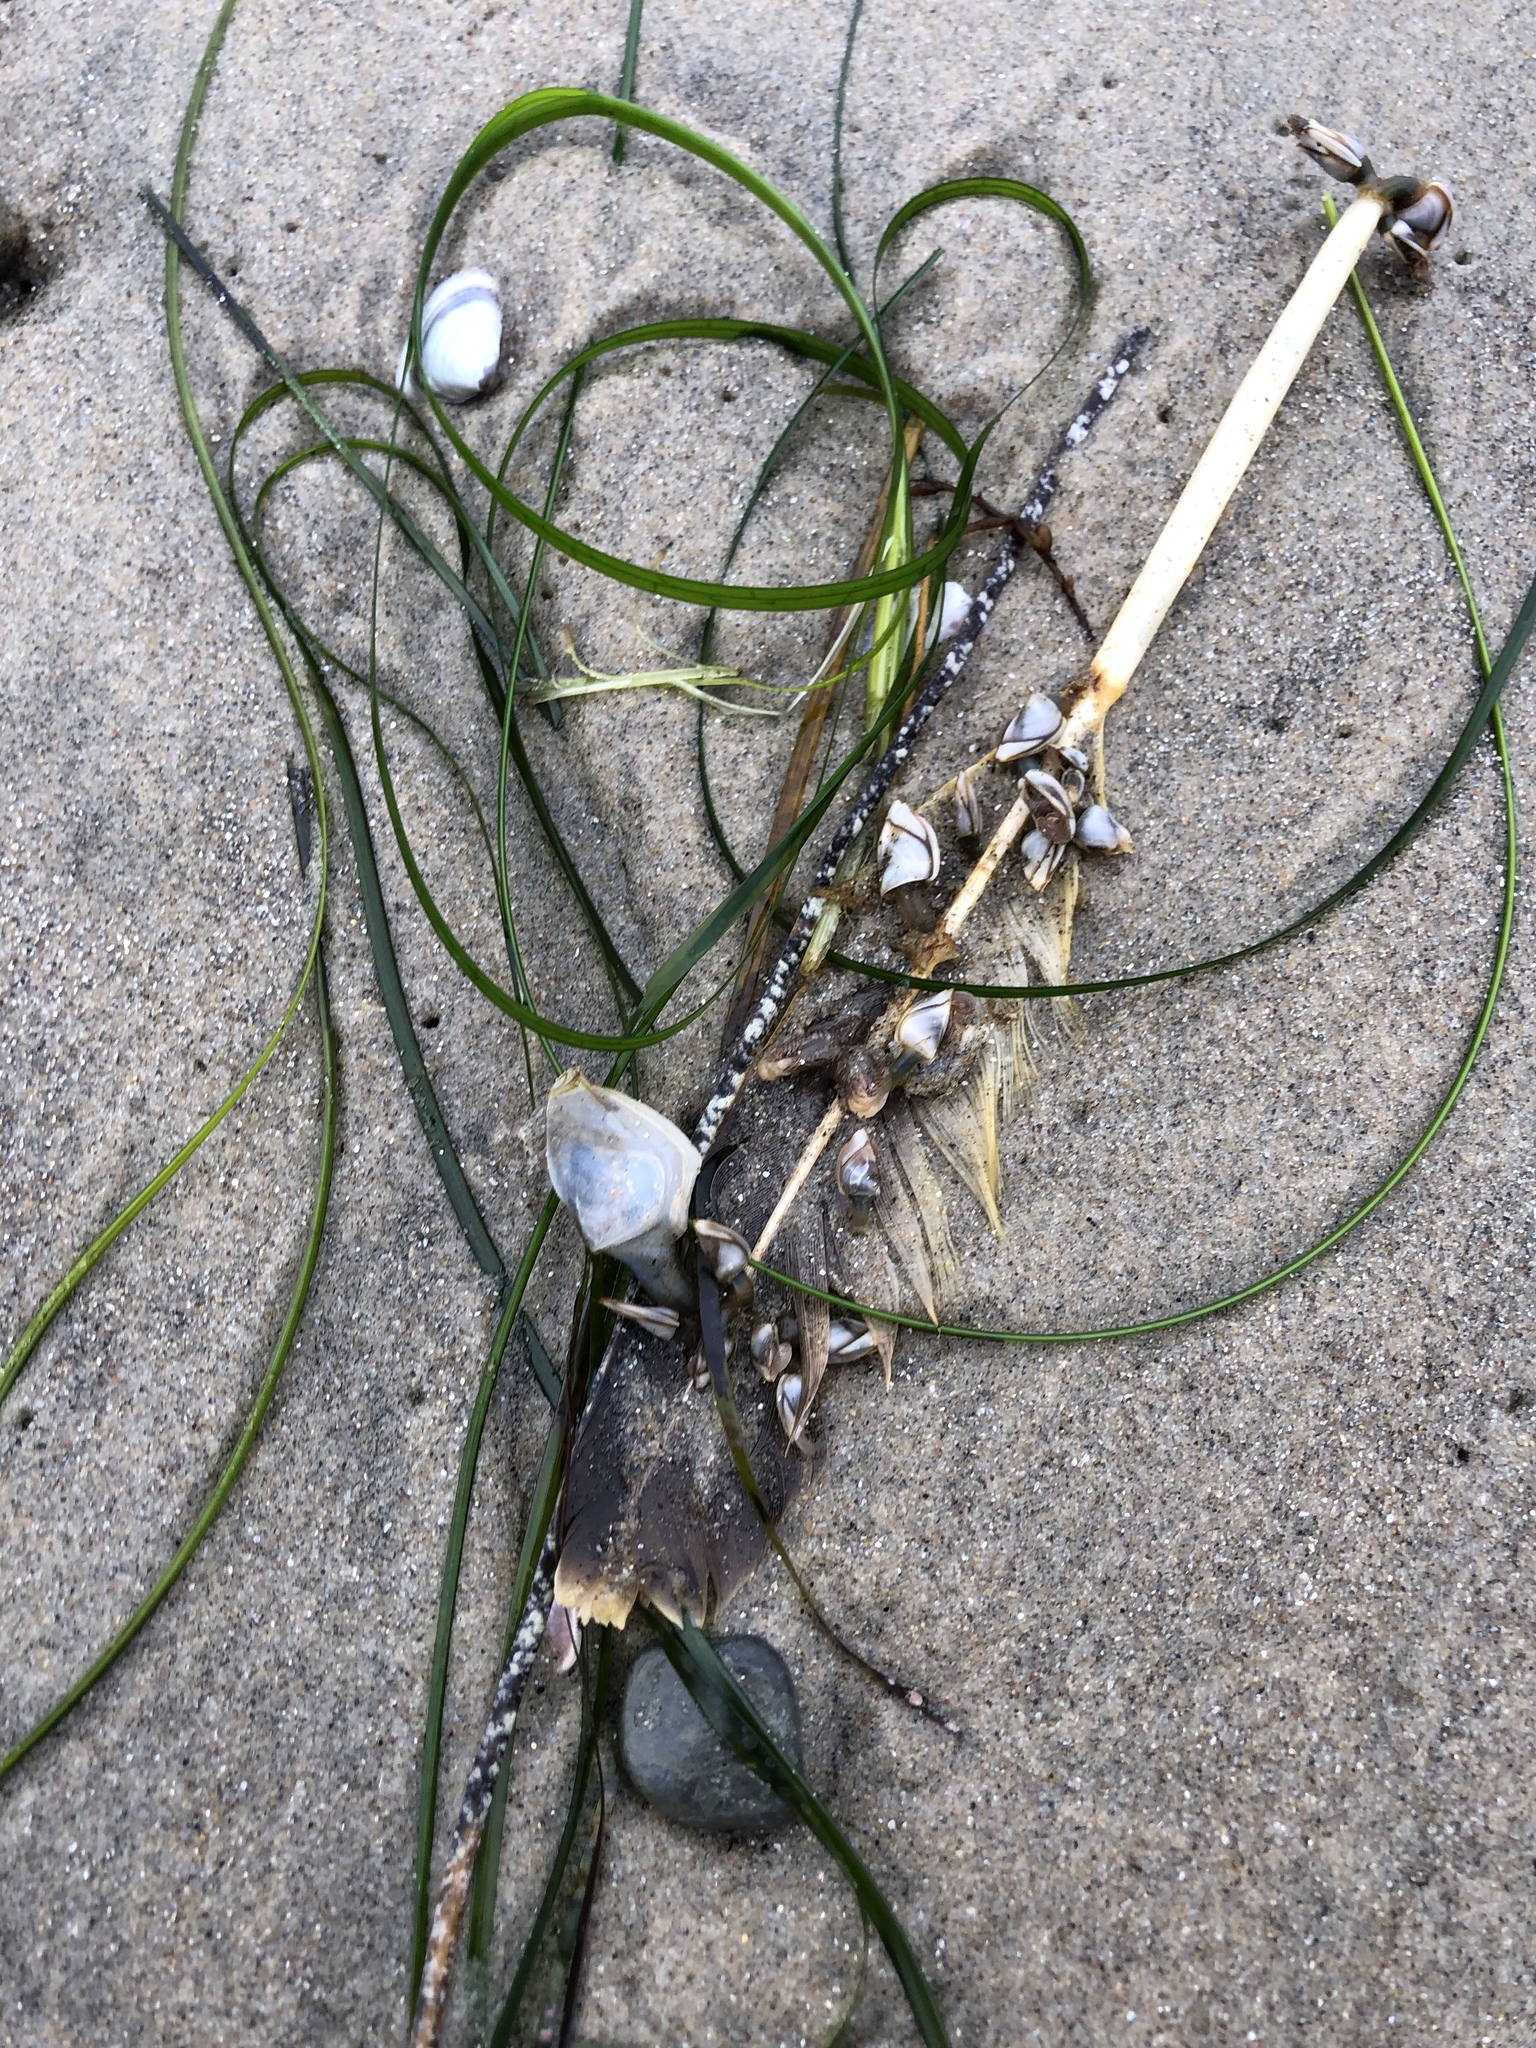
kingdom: Animalia
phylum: Arthropoda
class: Maxillopoda
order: Pedunculata
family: Lepadidae
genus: Dosima
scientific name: Dosima fascicularis
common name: Buoy barnacle
